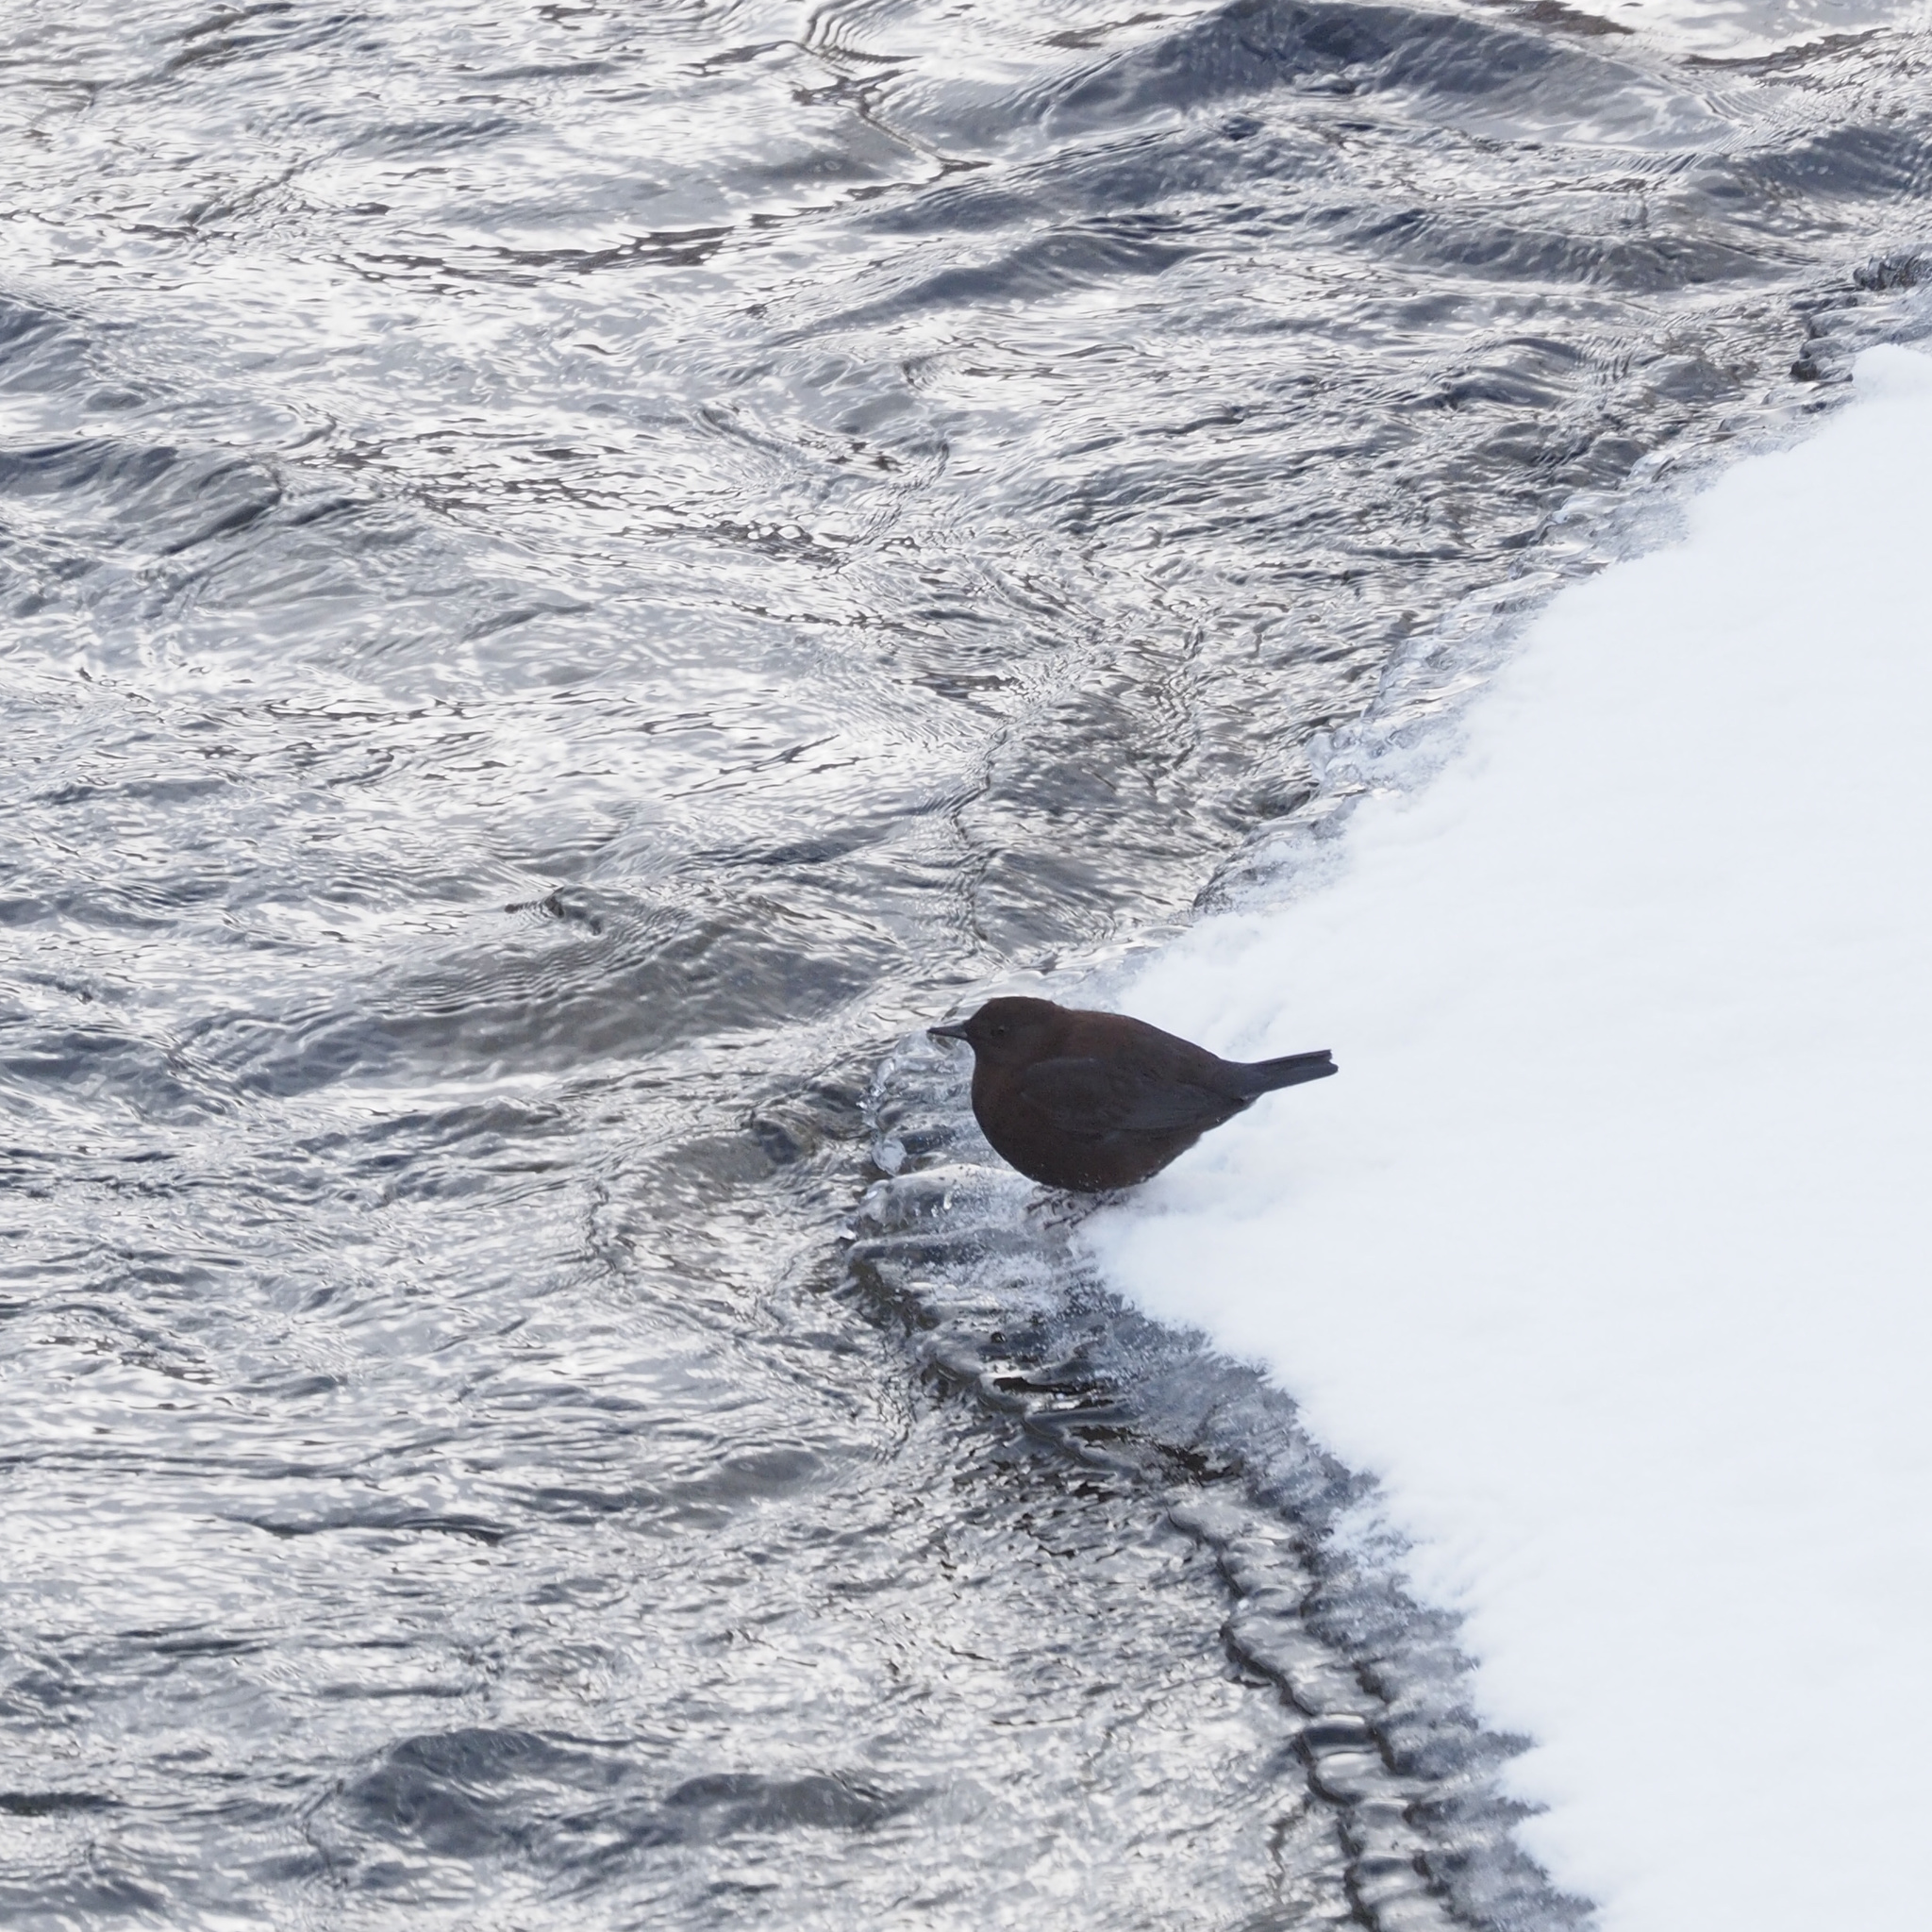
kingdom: Animalia
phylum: Chordata
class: Aves
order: Passeriformes
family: Cinclidae
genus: Cinclus
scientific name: Cinclus pallasii
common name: Brown dipper
